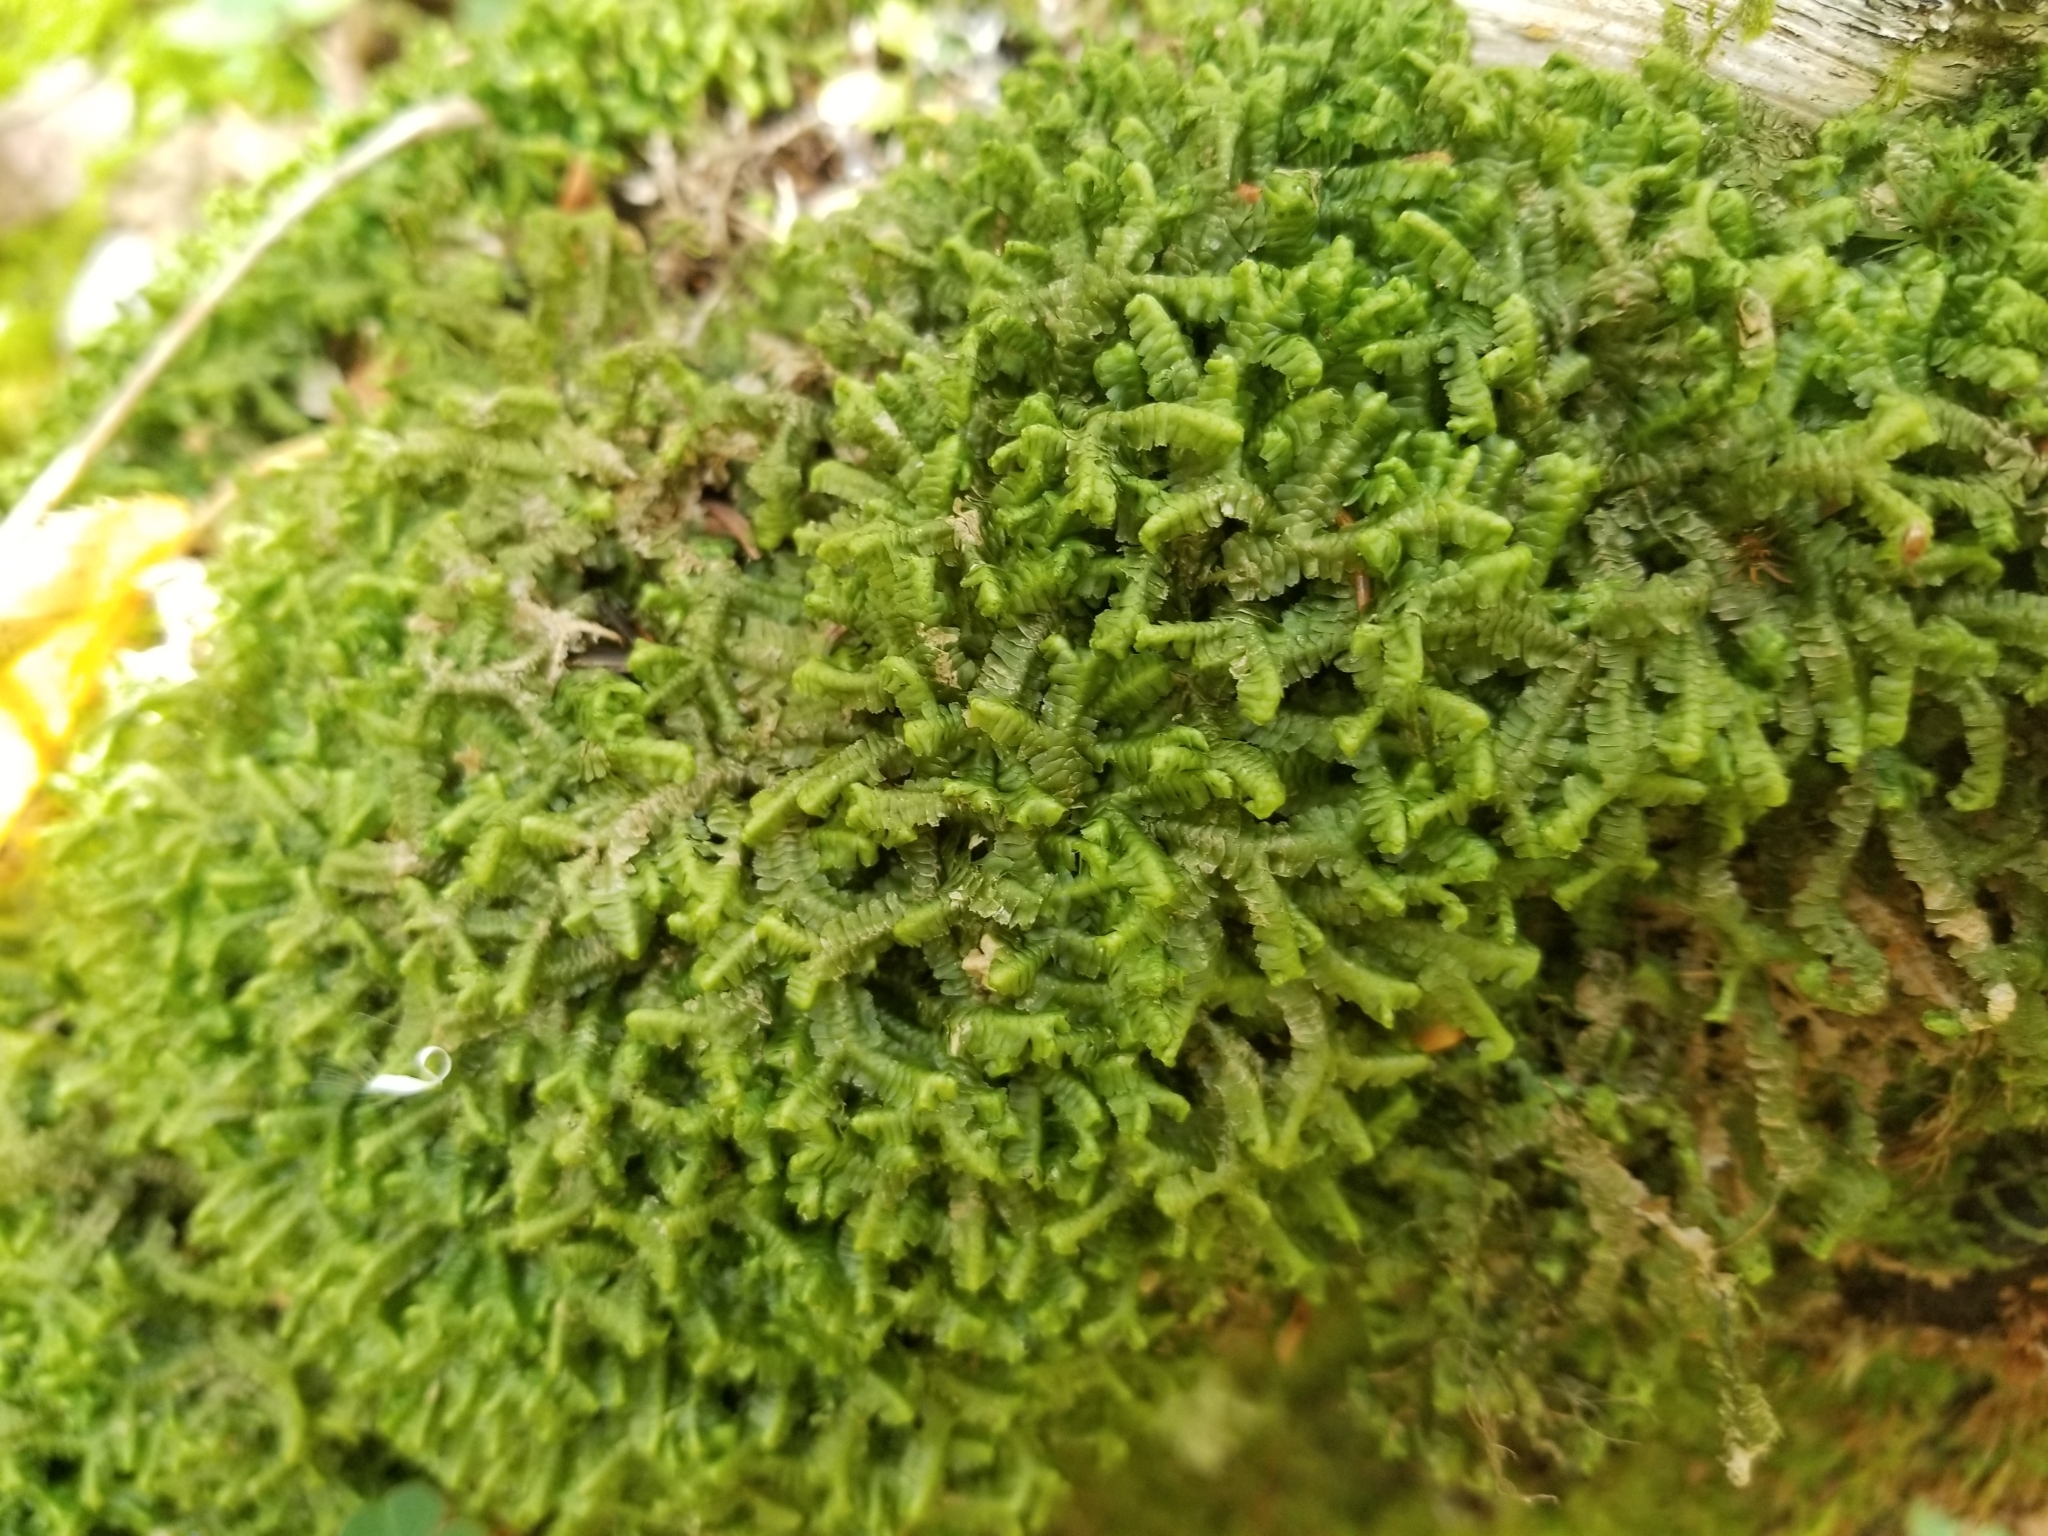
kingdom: Plantae
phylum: Marchantiophyta
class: Jungermanniopsida
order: Jungermanniales
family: Lepidoziaceae
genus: Bazzania
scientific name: Bazzania trilobata
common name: Three-lobed whipwort
